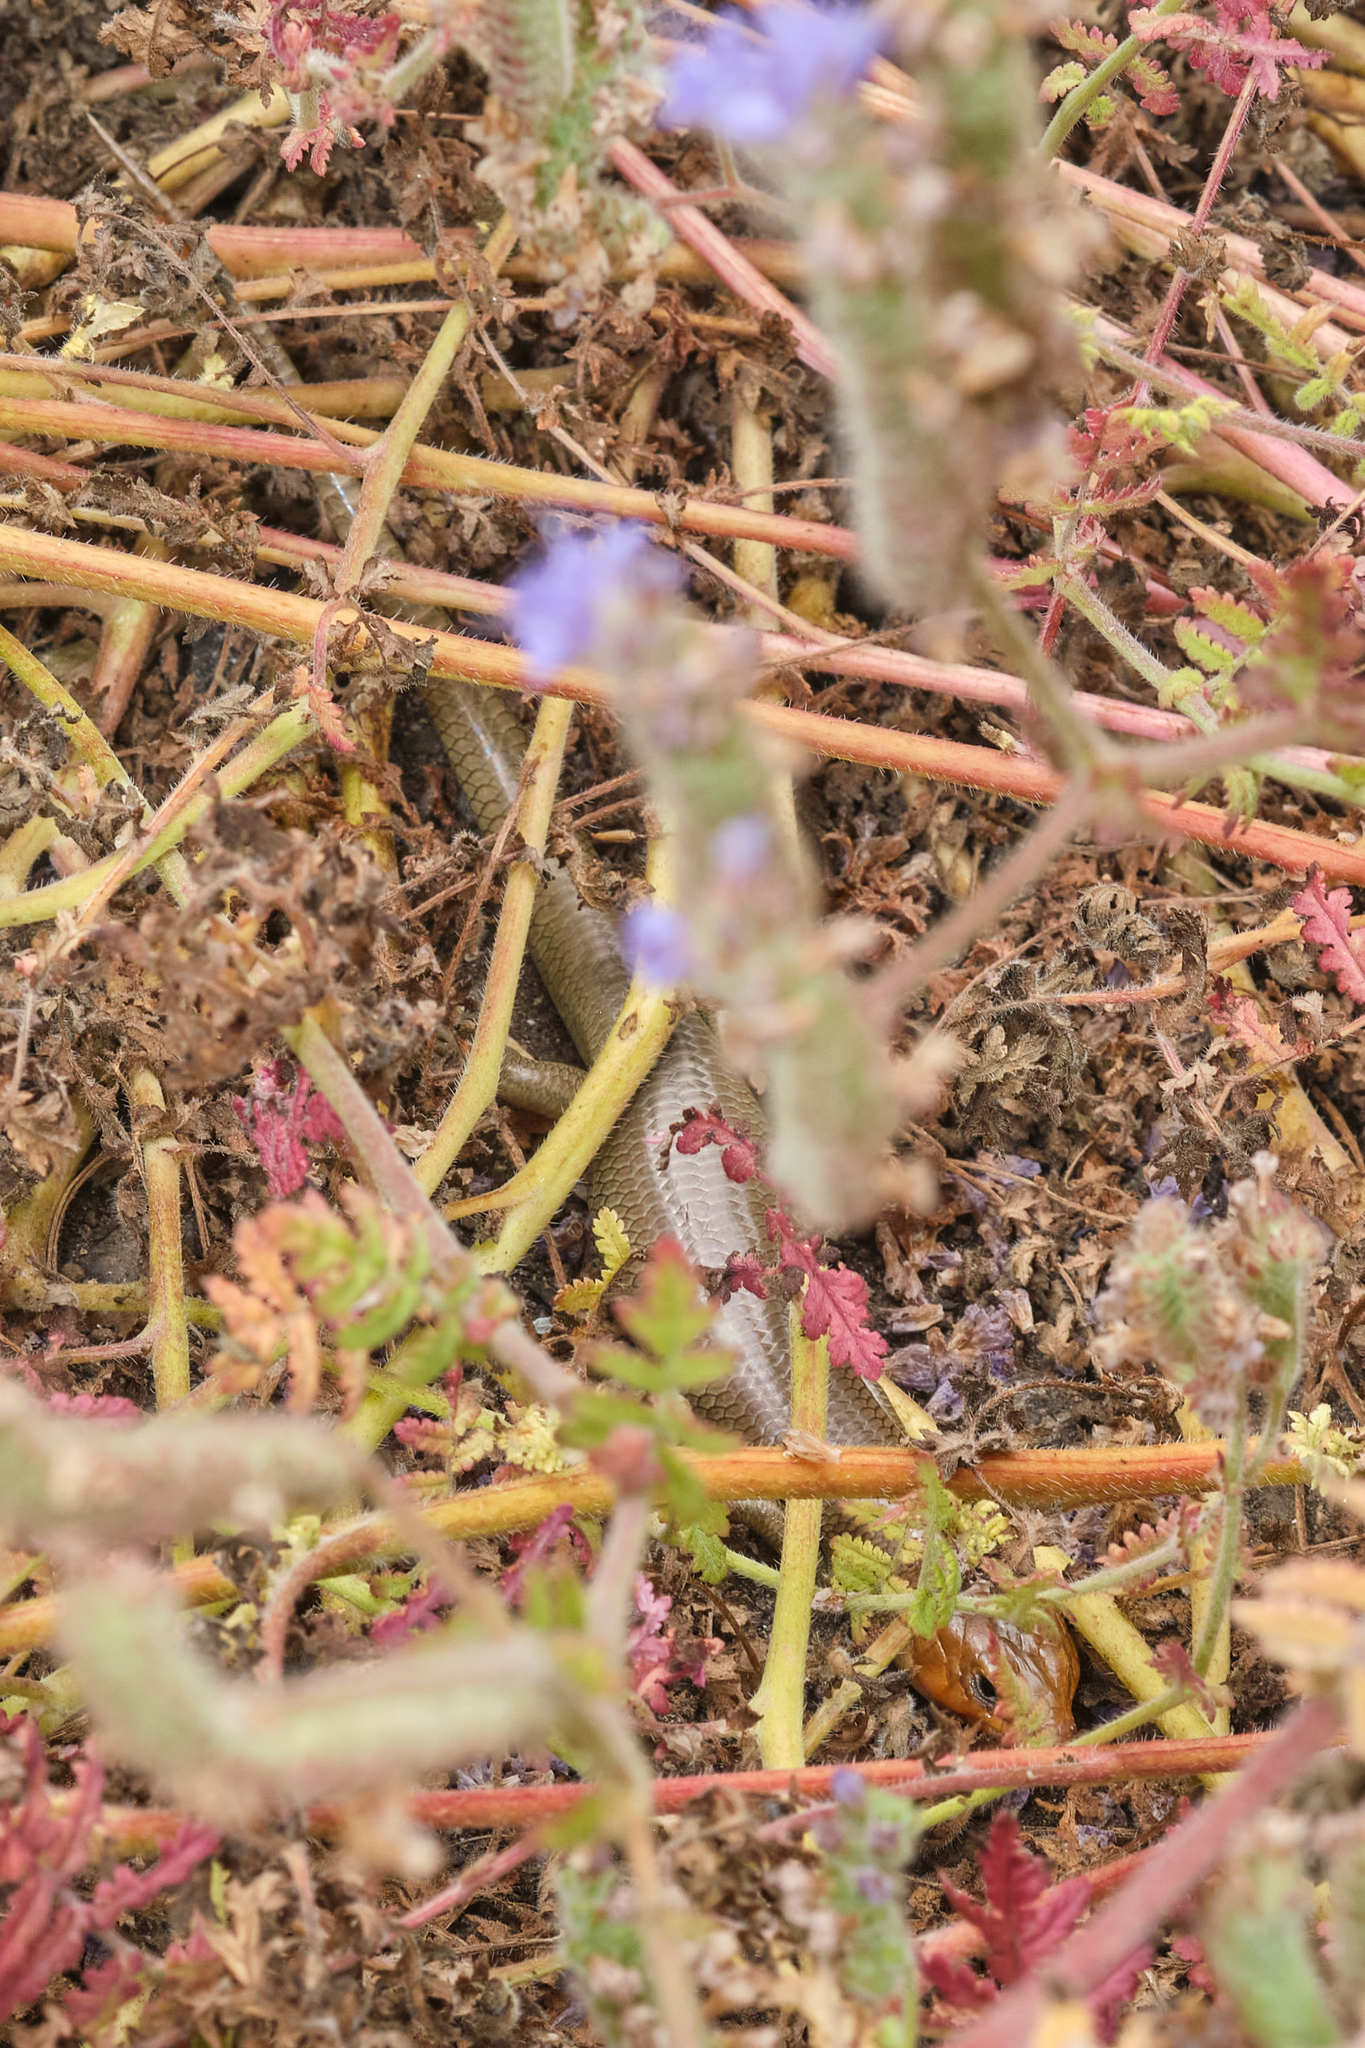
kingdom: Animalia
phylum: Chordata
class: Squamata
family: Scincidae
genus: Plestiodon
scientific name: Plestiodon gilberti
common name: Gilbert's skink
